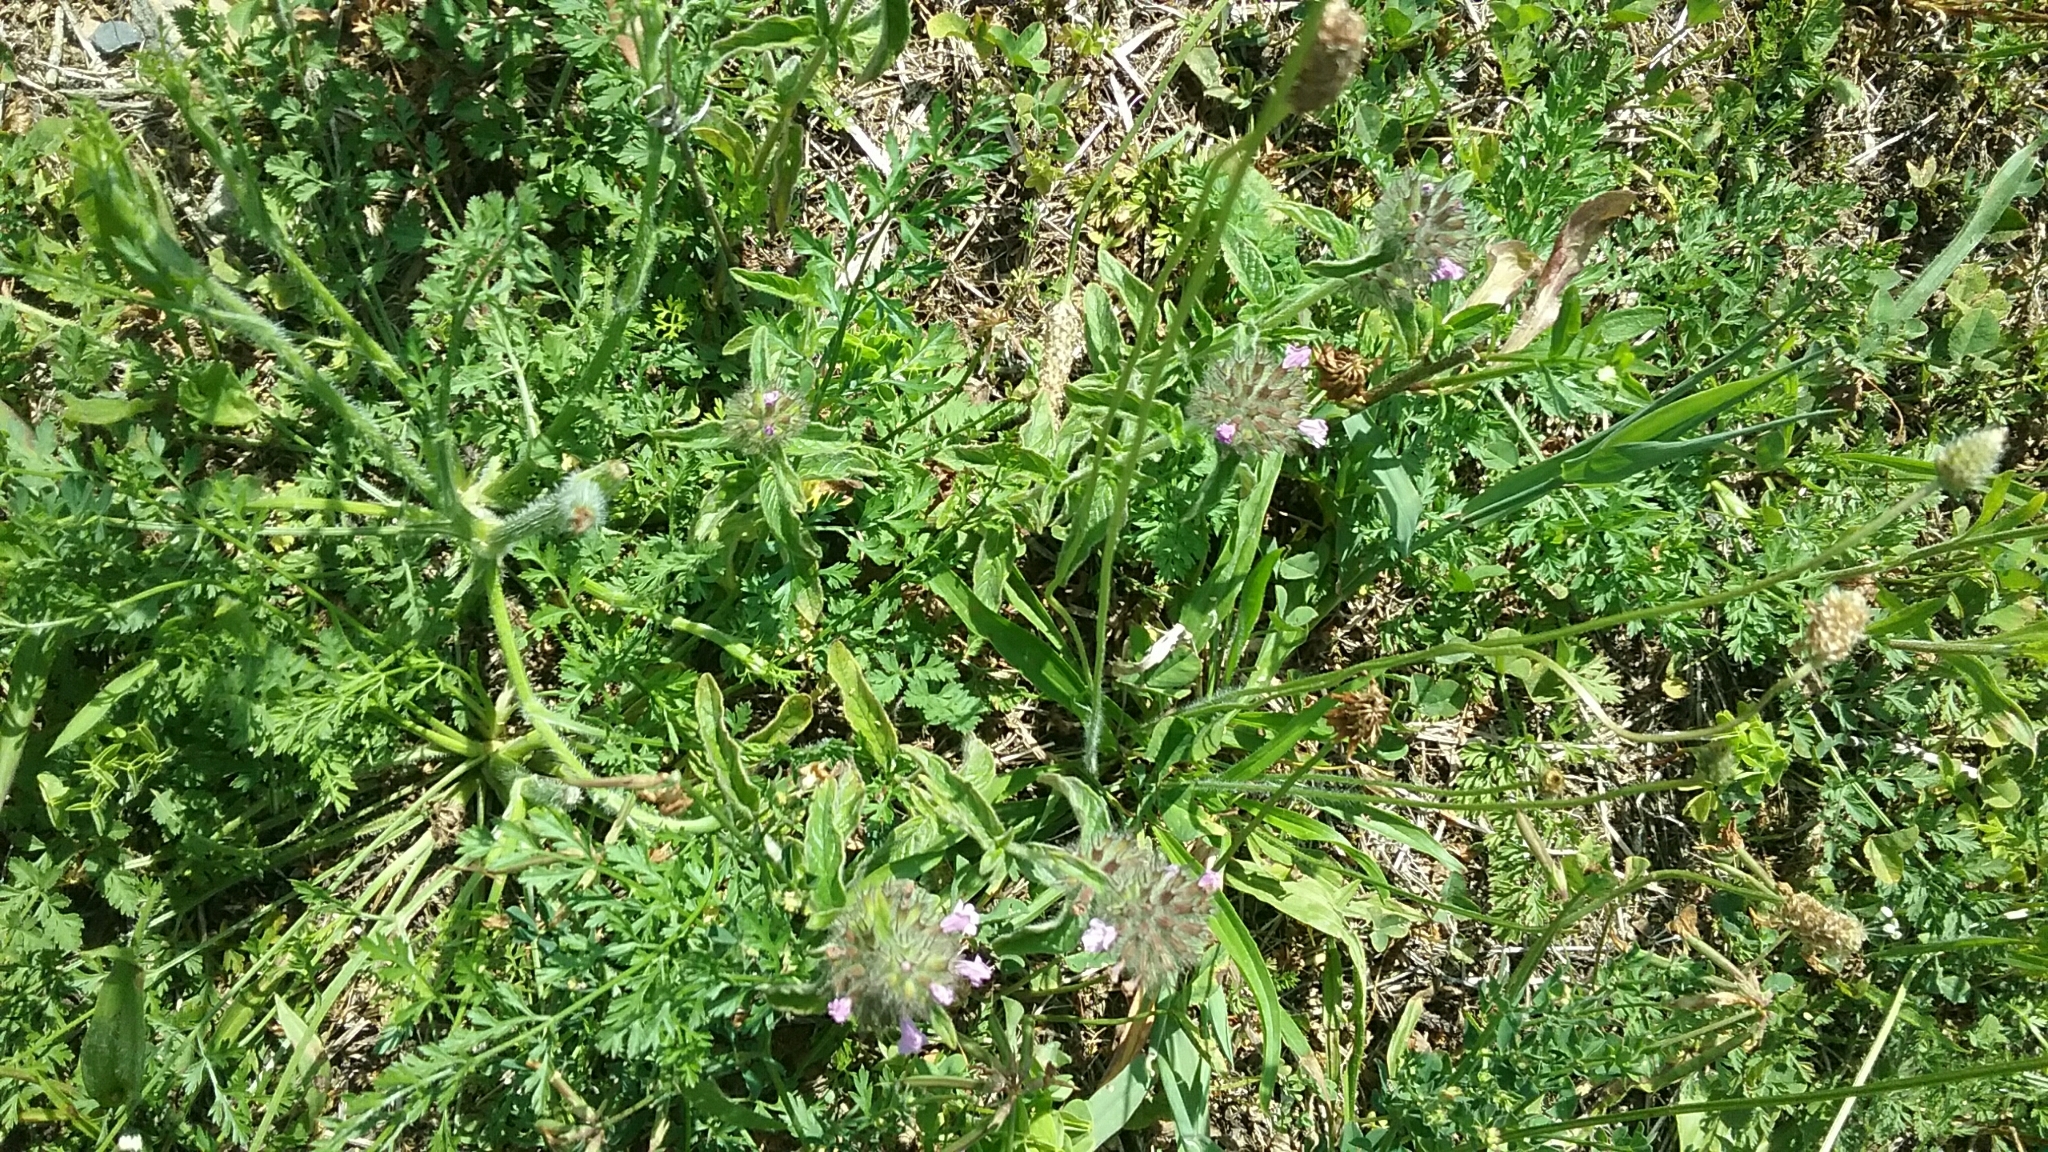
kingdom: Plantae
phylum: Tracheophyta
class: Magnoliopsida
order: Lamiales
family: Lamiaceae
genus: Clinopodium
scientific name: Clinopodium vulgare
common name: Wild basil
